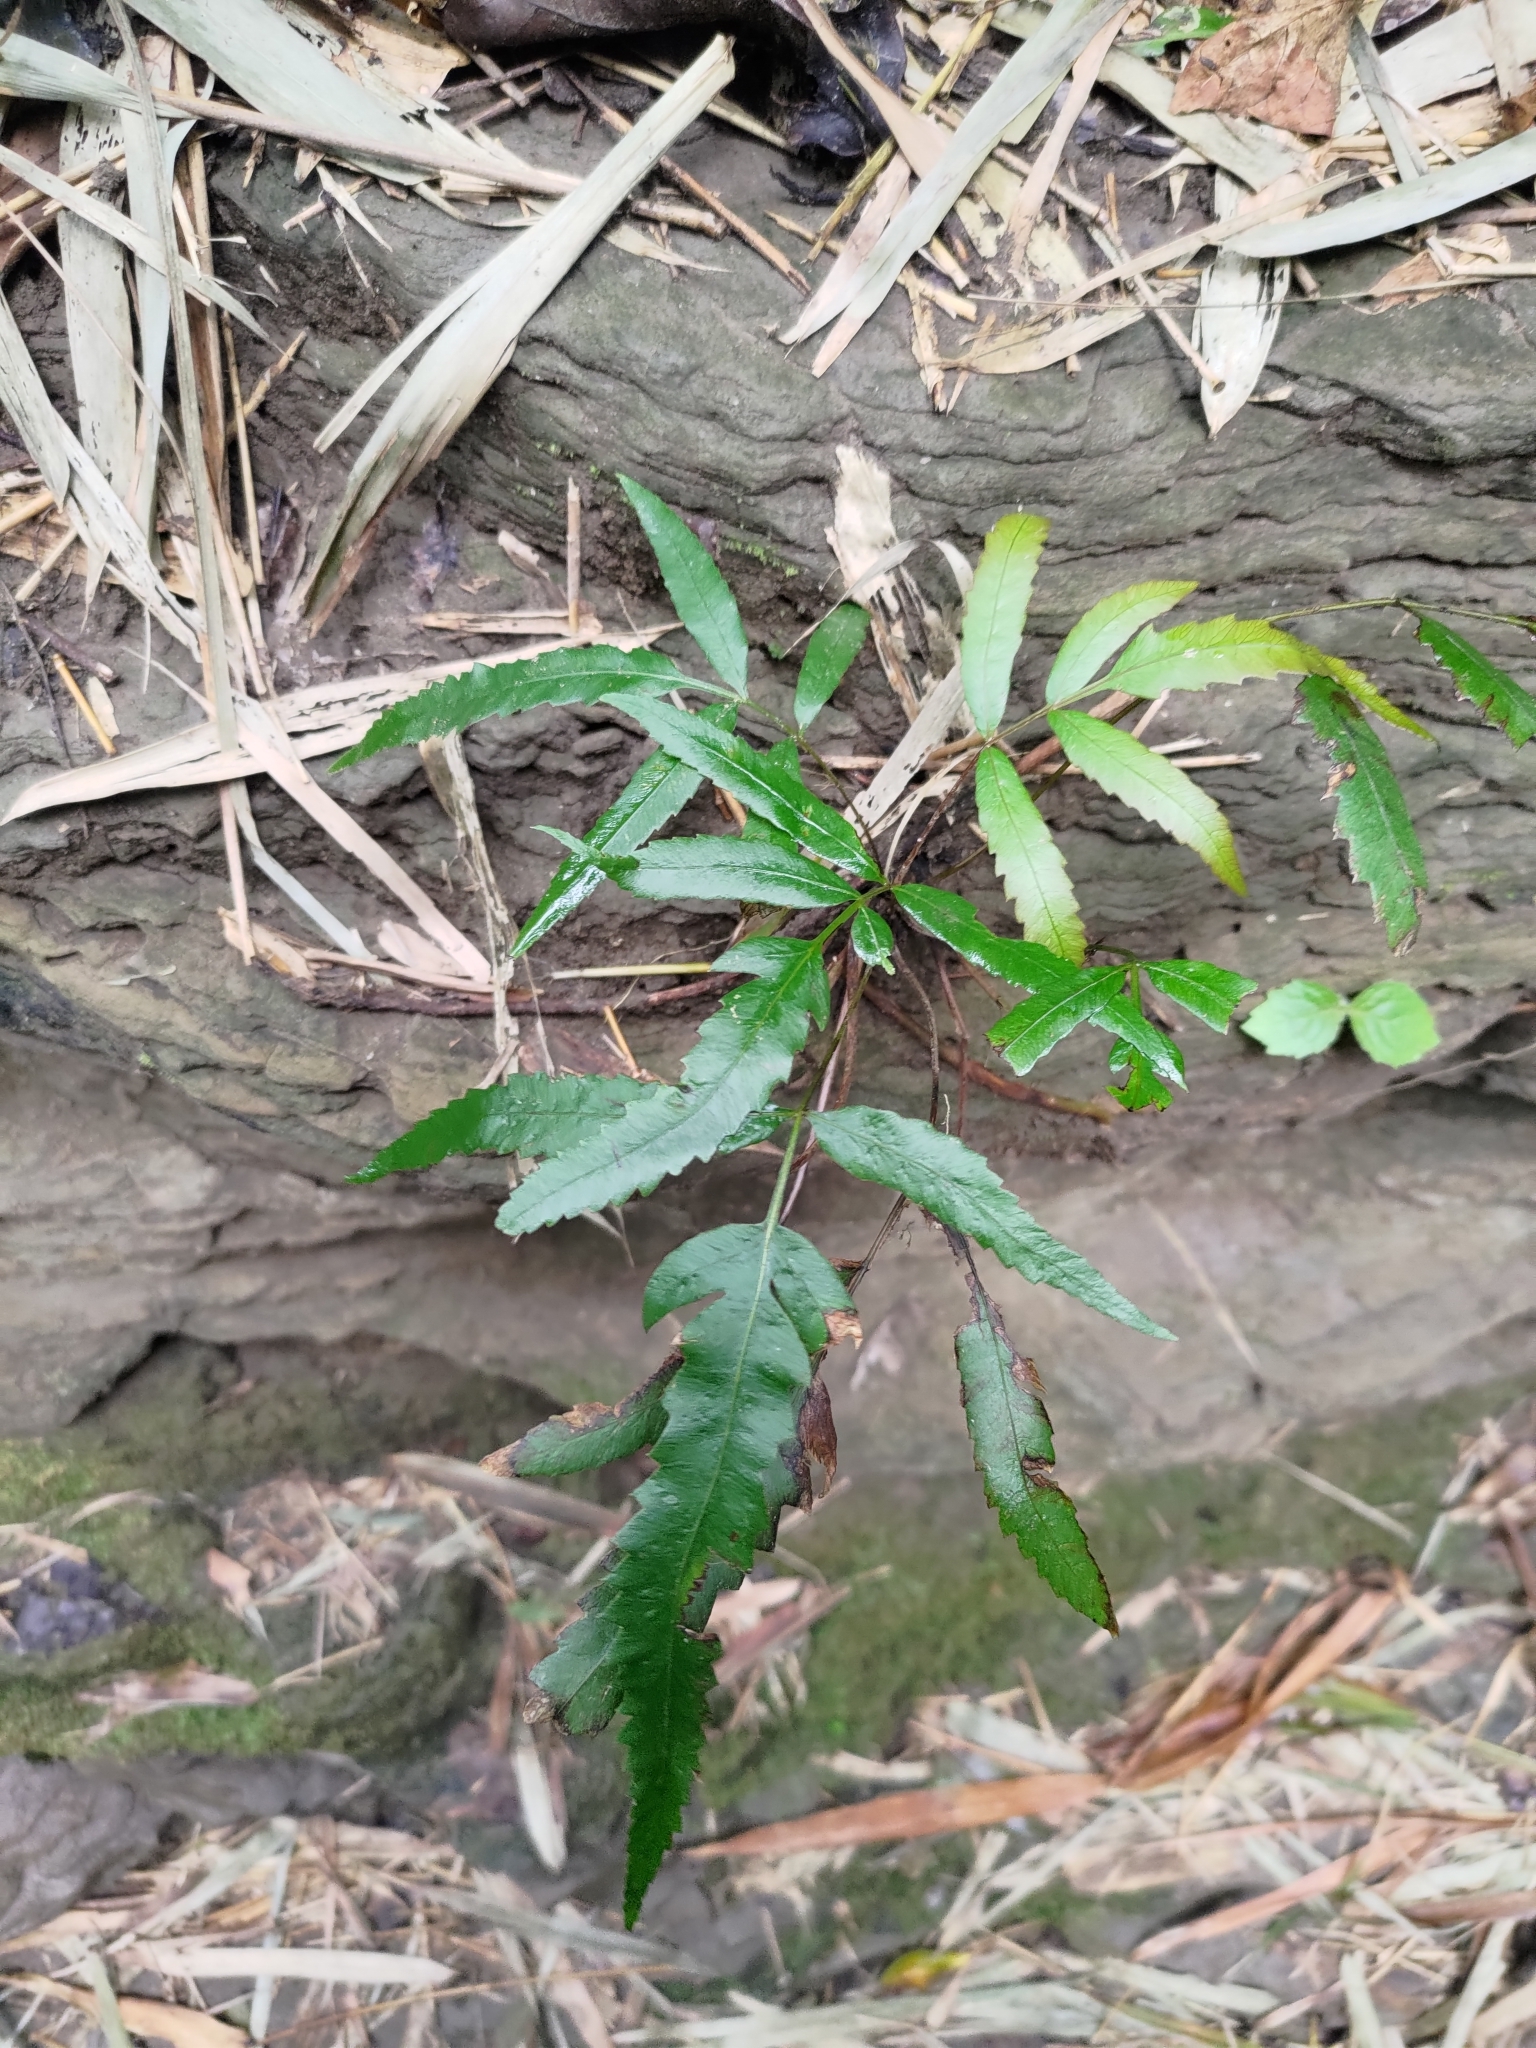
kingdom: Plantae
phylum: Tracheophyta
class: Polypodiopsida
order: Osmundales
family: Osmundaceae
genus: Plenasium
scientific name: Plenasium banksiifolium
